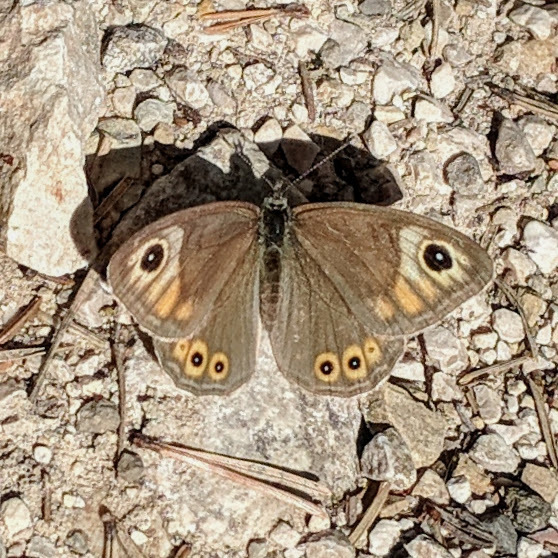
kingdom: Animalia
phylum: Arthropoda
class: Insecta
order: Lepidoptera
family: Nymphalidae
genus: Pararge
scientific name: Pararge Lasiommata maera
